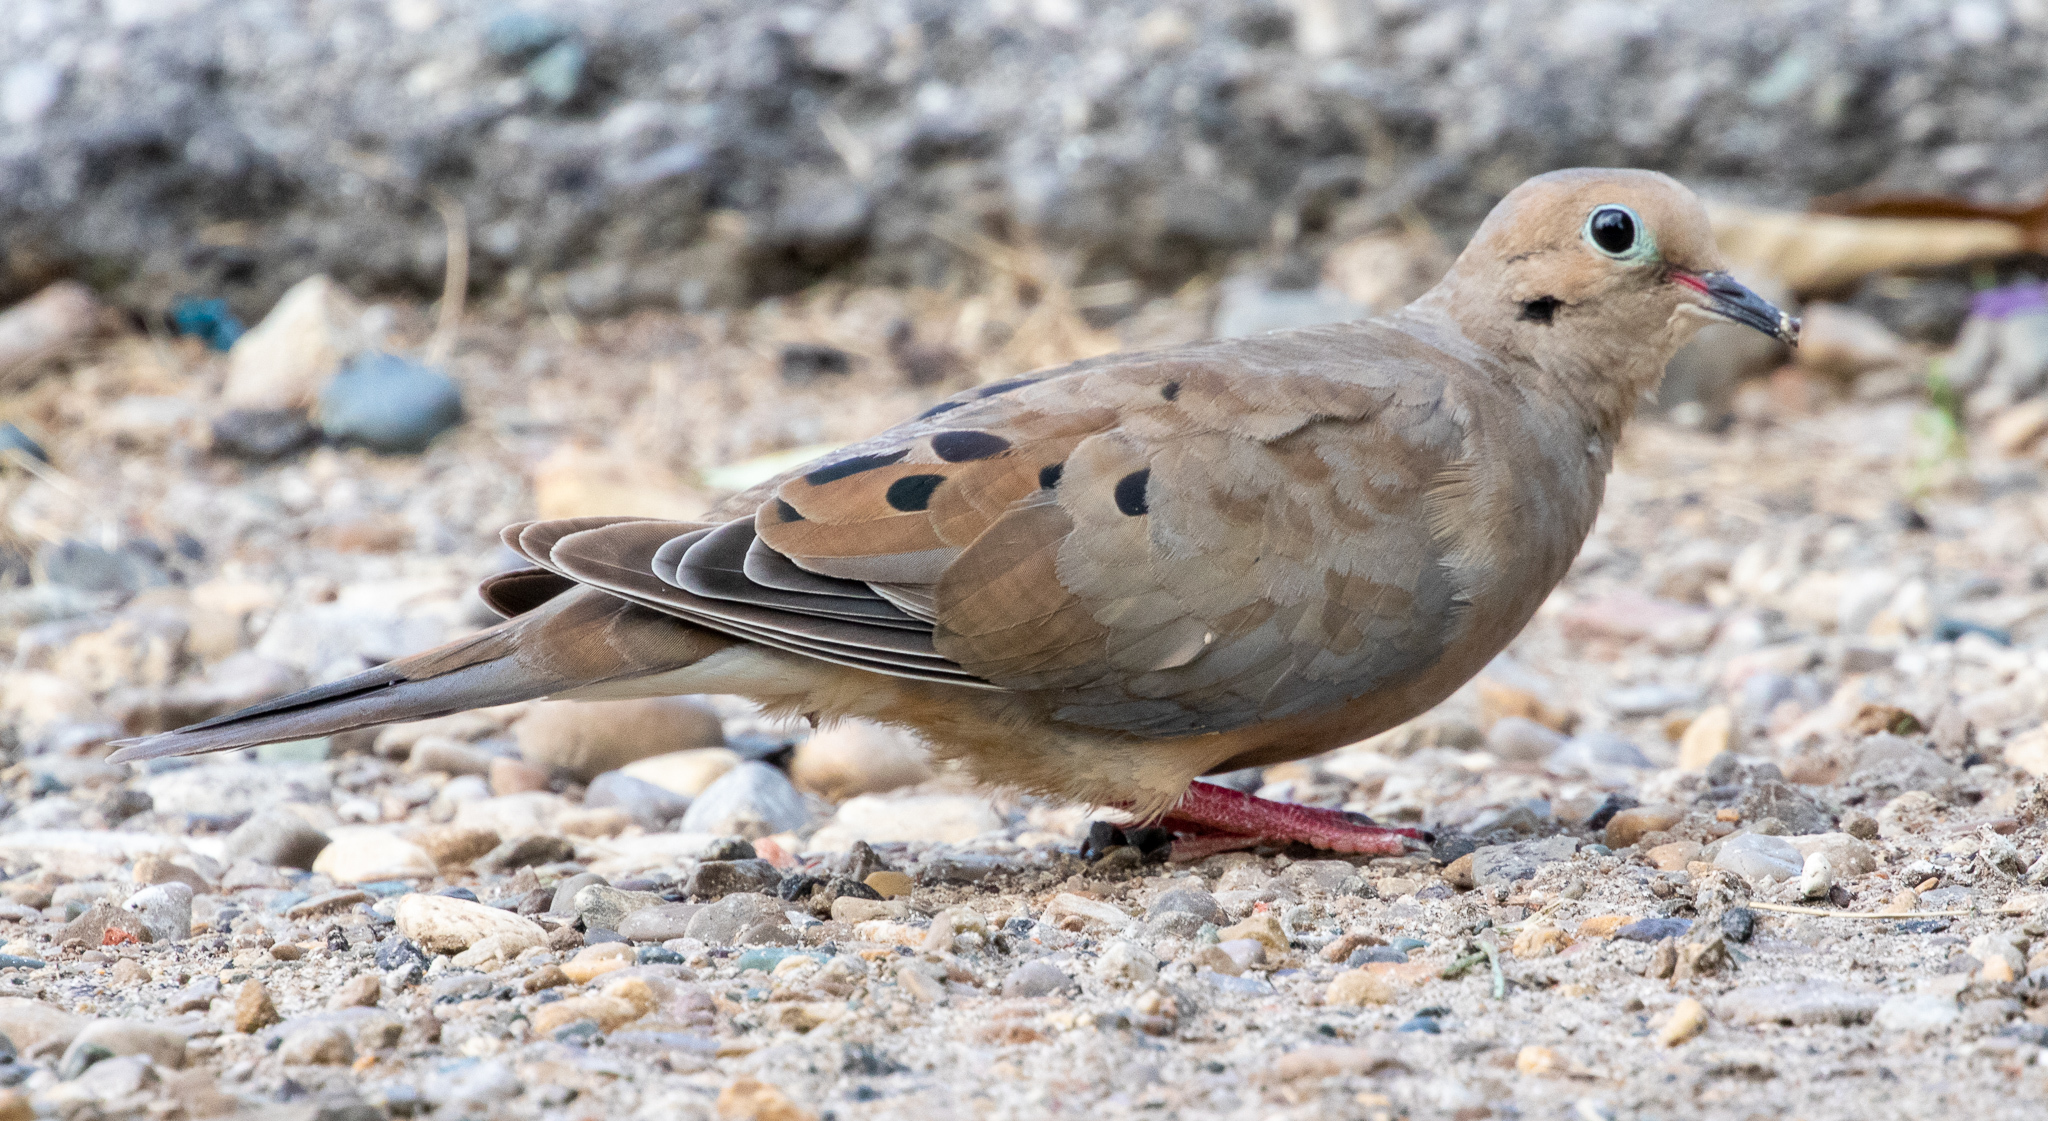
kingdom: Animalia
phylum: Chordata
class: Aves
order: Columbiformes
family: Columbidae
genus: Zenaida
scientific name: Zenaida macroura
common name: Mourning dove
